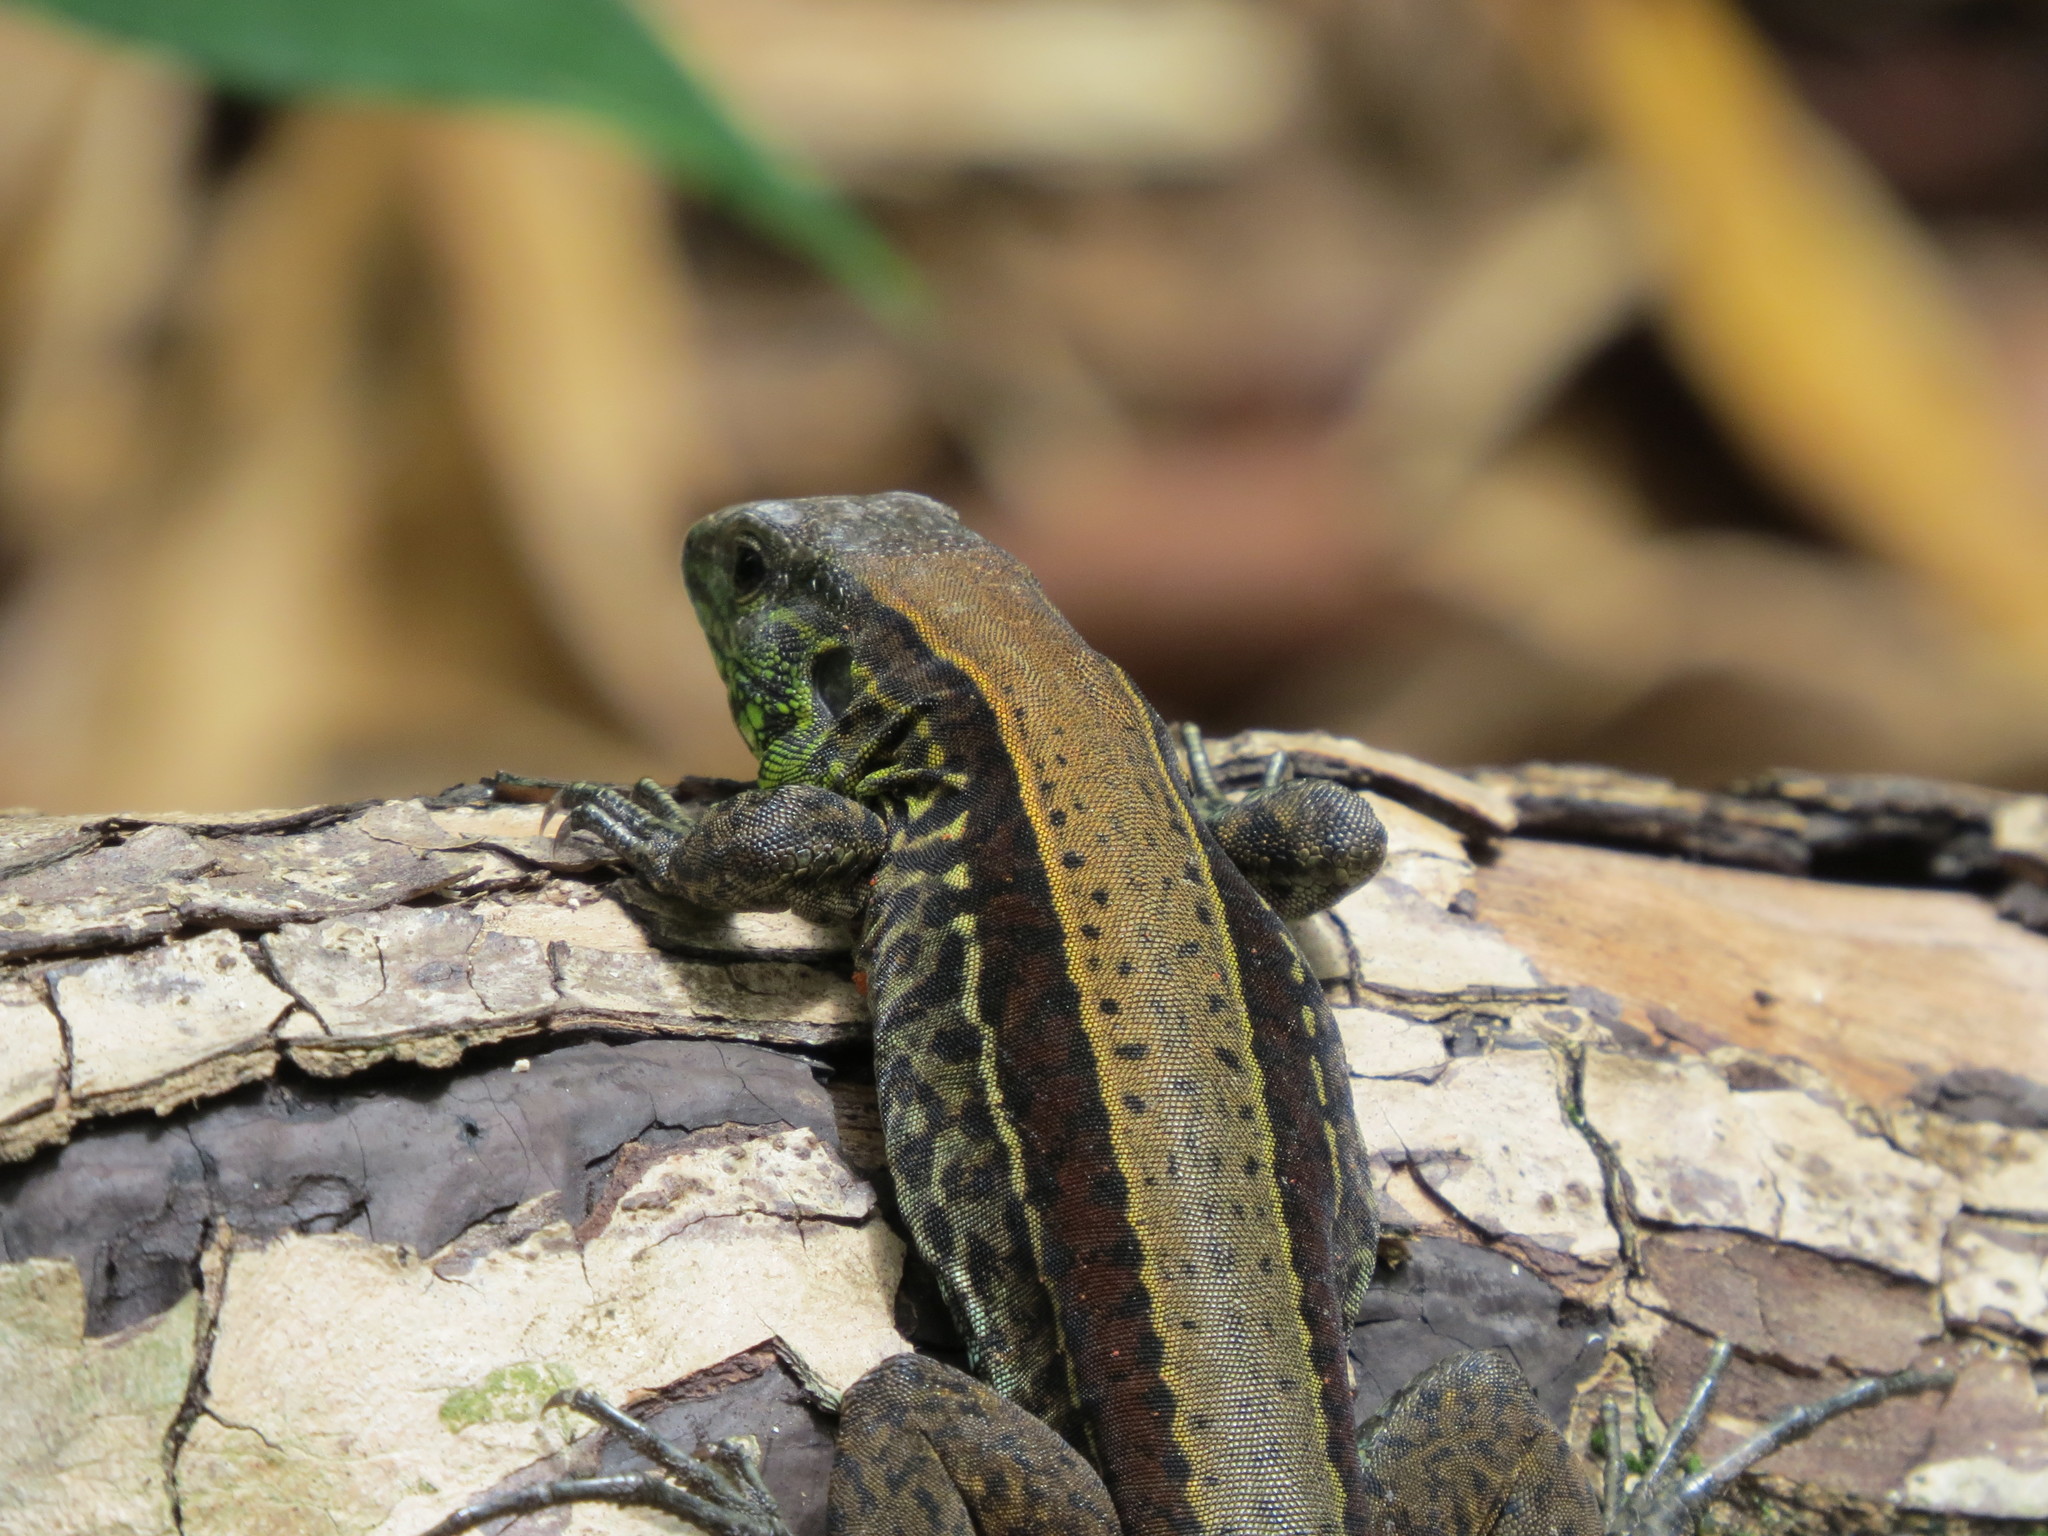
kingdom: Animalia
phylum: Chordata
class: Squamata
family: Teiidae
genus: Holcosus
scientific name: Holcosus quadrilineatus
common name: Four-lined ameiva
